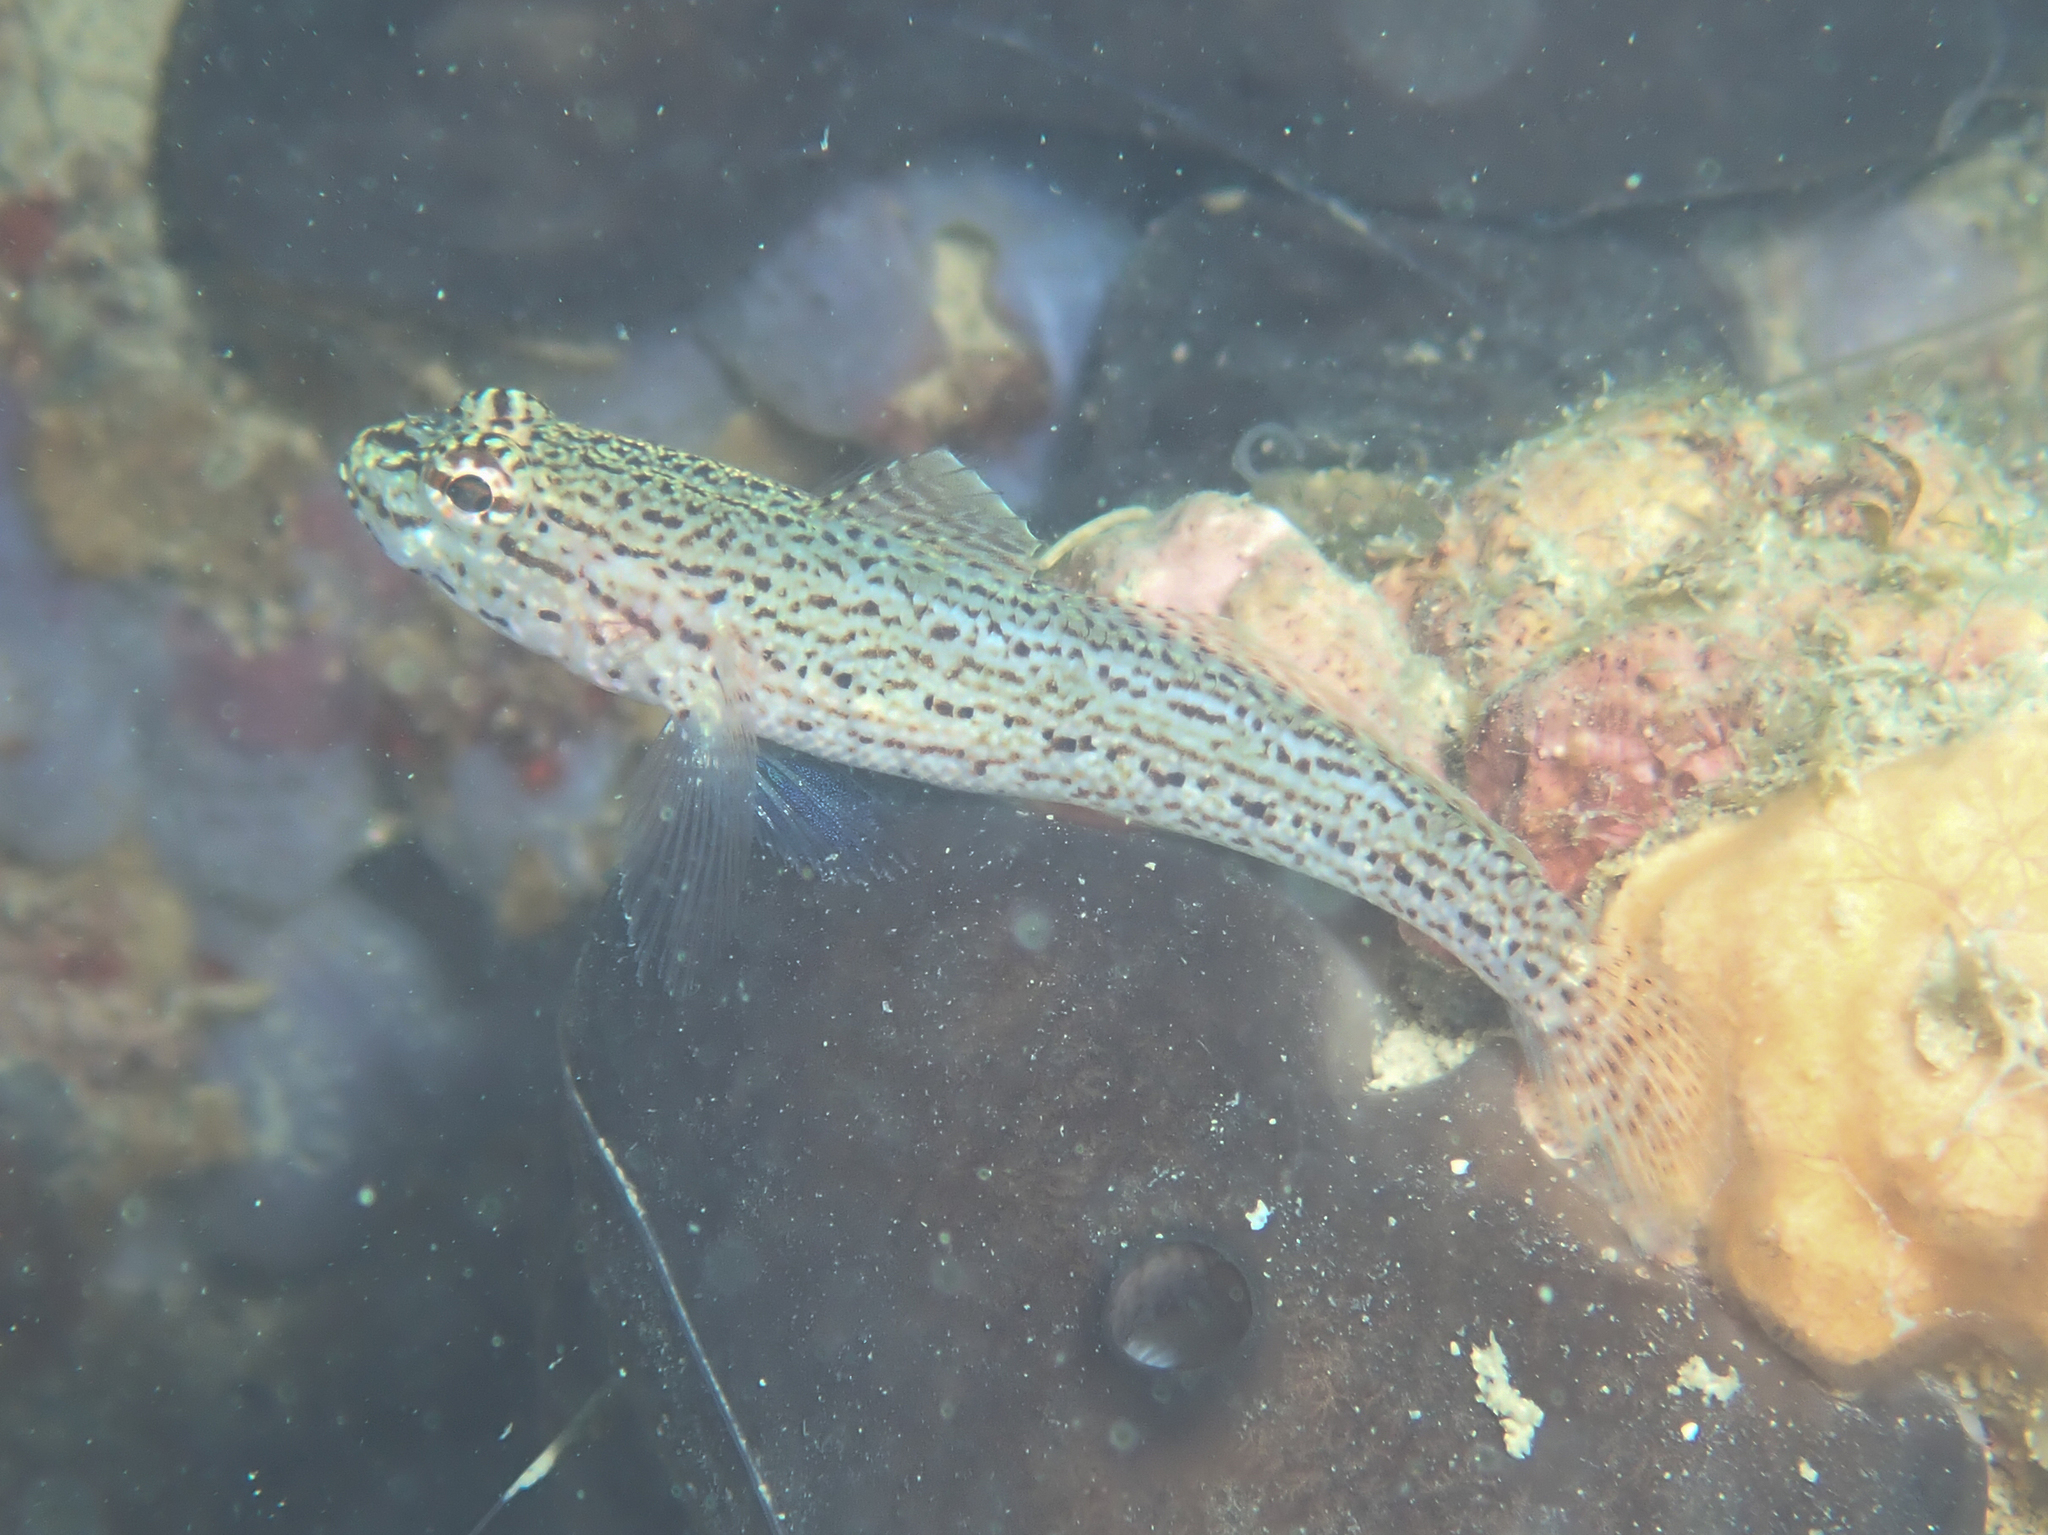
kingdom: Animalia
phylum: Chordata
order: Perciformes
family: Gobiidae
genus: Gobius
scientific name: Gobius fallax
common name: Sarato's goby
